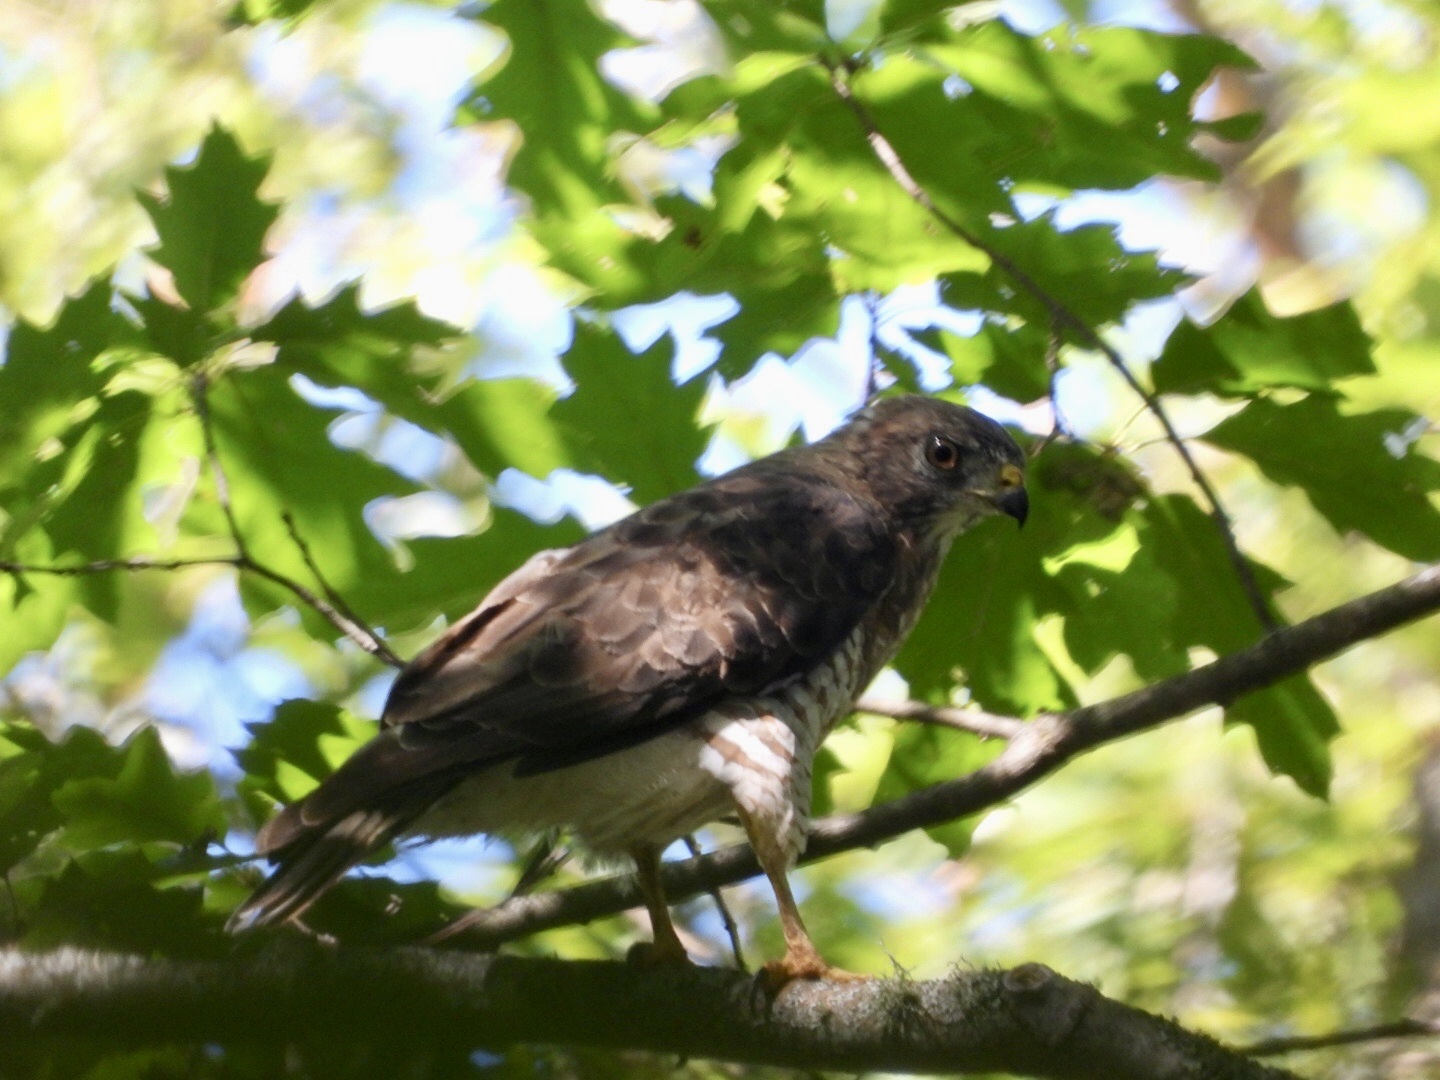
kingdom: Animalia
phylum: Chordata
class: Aves
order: Accipitriformes
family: Accipitridae
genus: Buteo
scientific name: Buteo platypterus
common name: Broad-winged hawk
